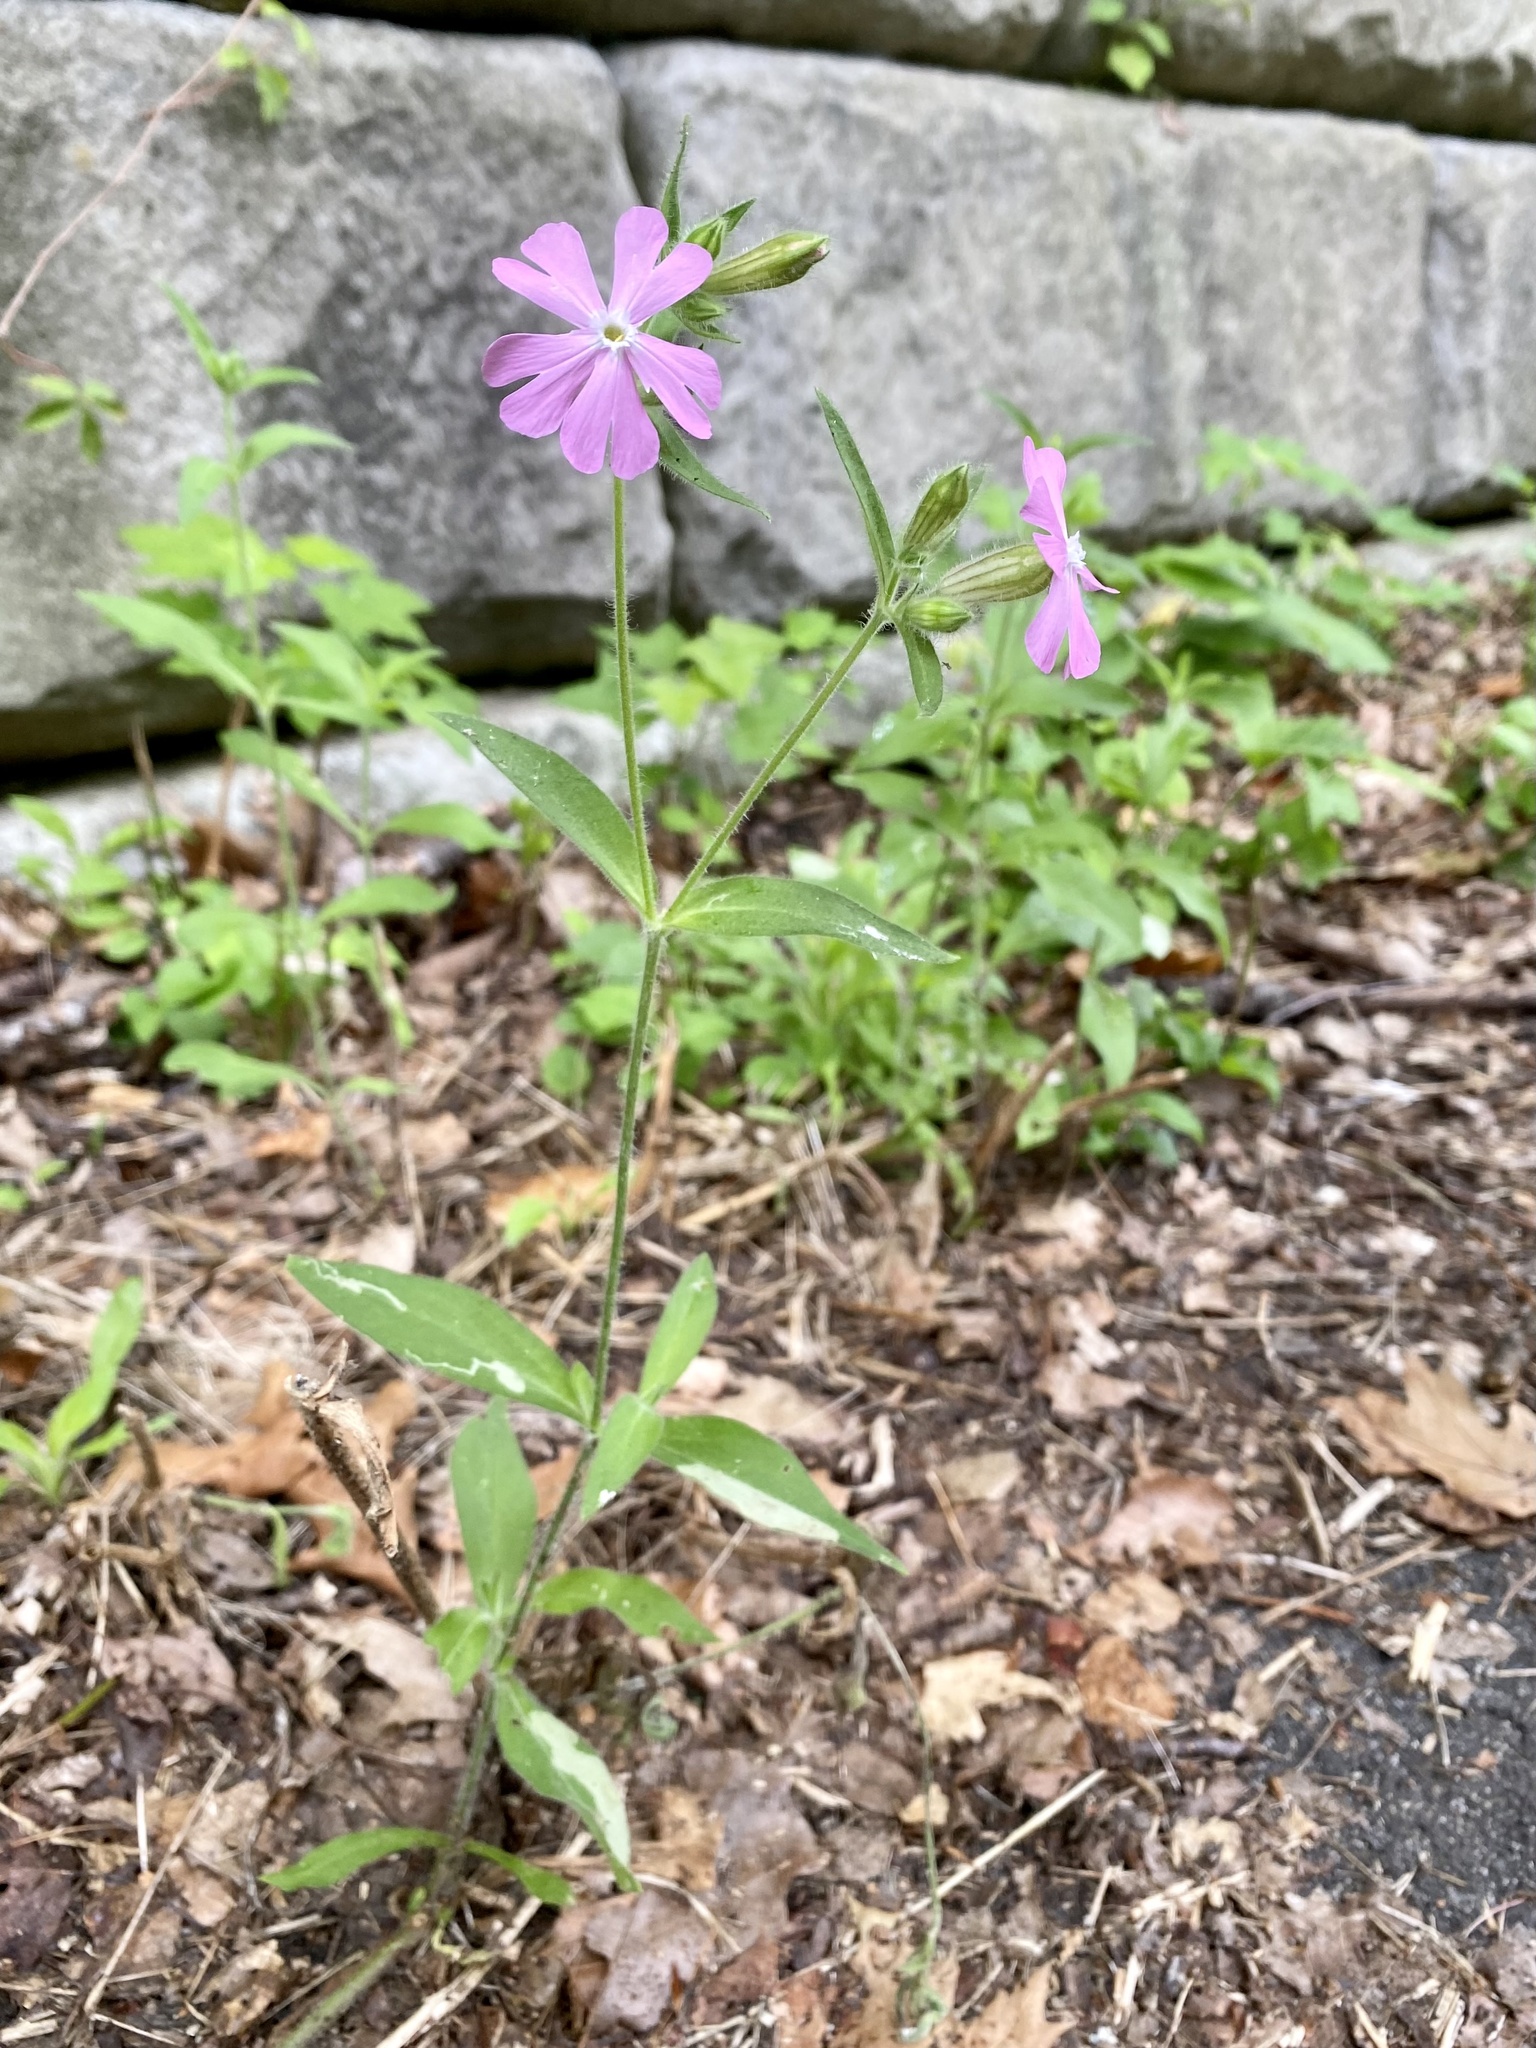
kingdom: Plantae
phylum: Tracheophyta
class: Magnoliopsida
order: Caryophyllales
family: Caryophyllaceae
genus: Silene
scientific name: Silene dioica
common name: Red campion
